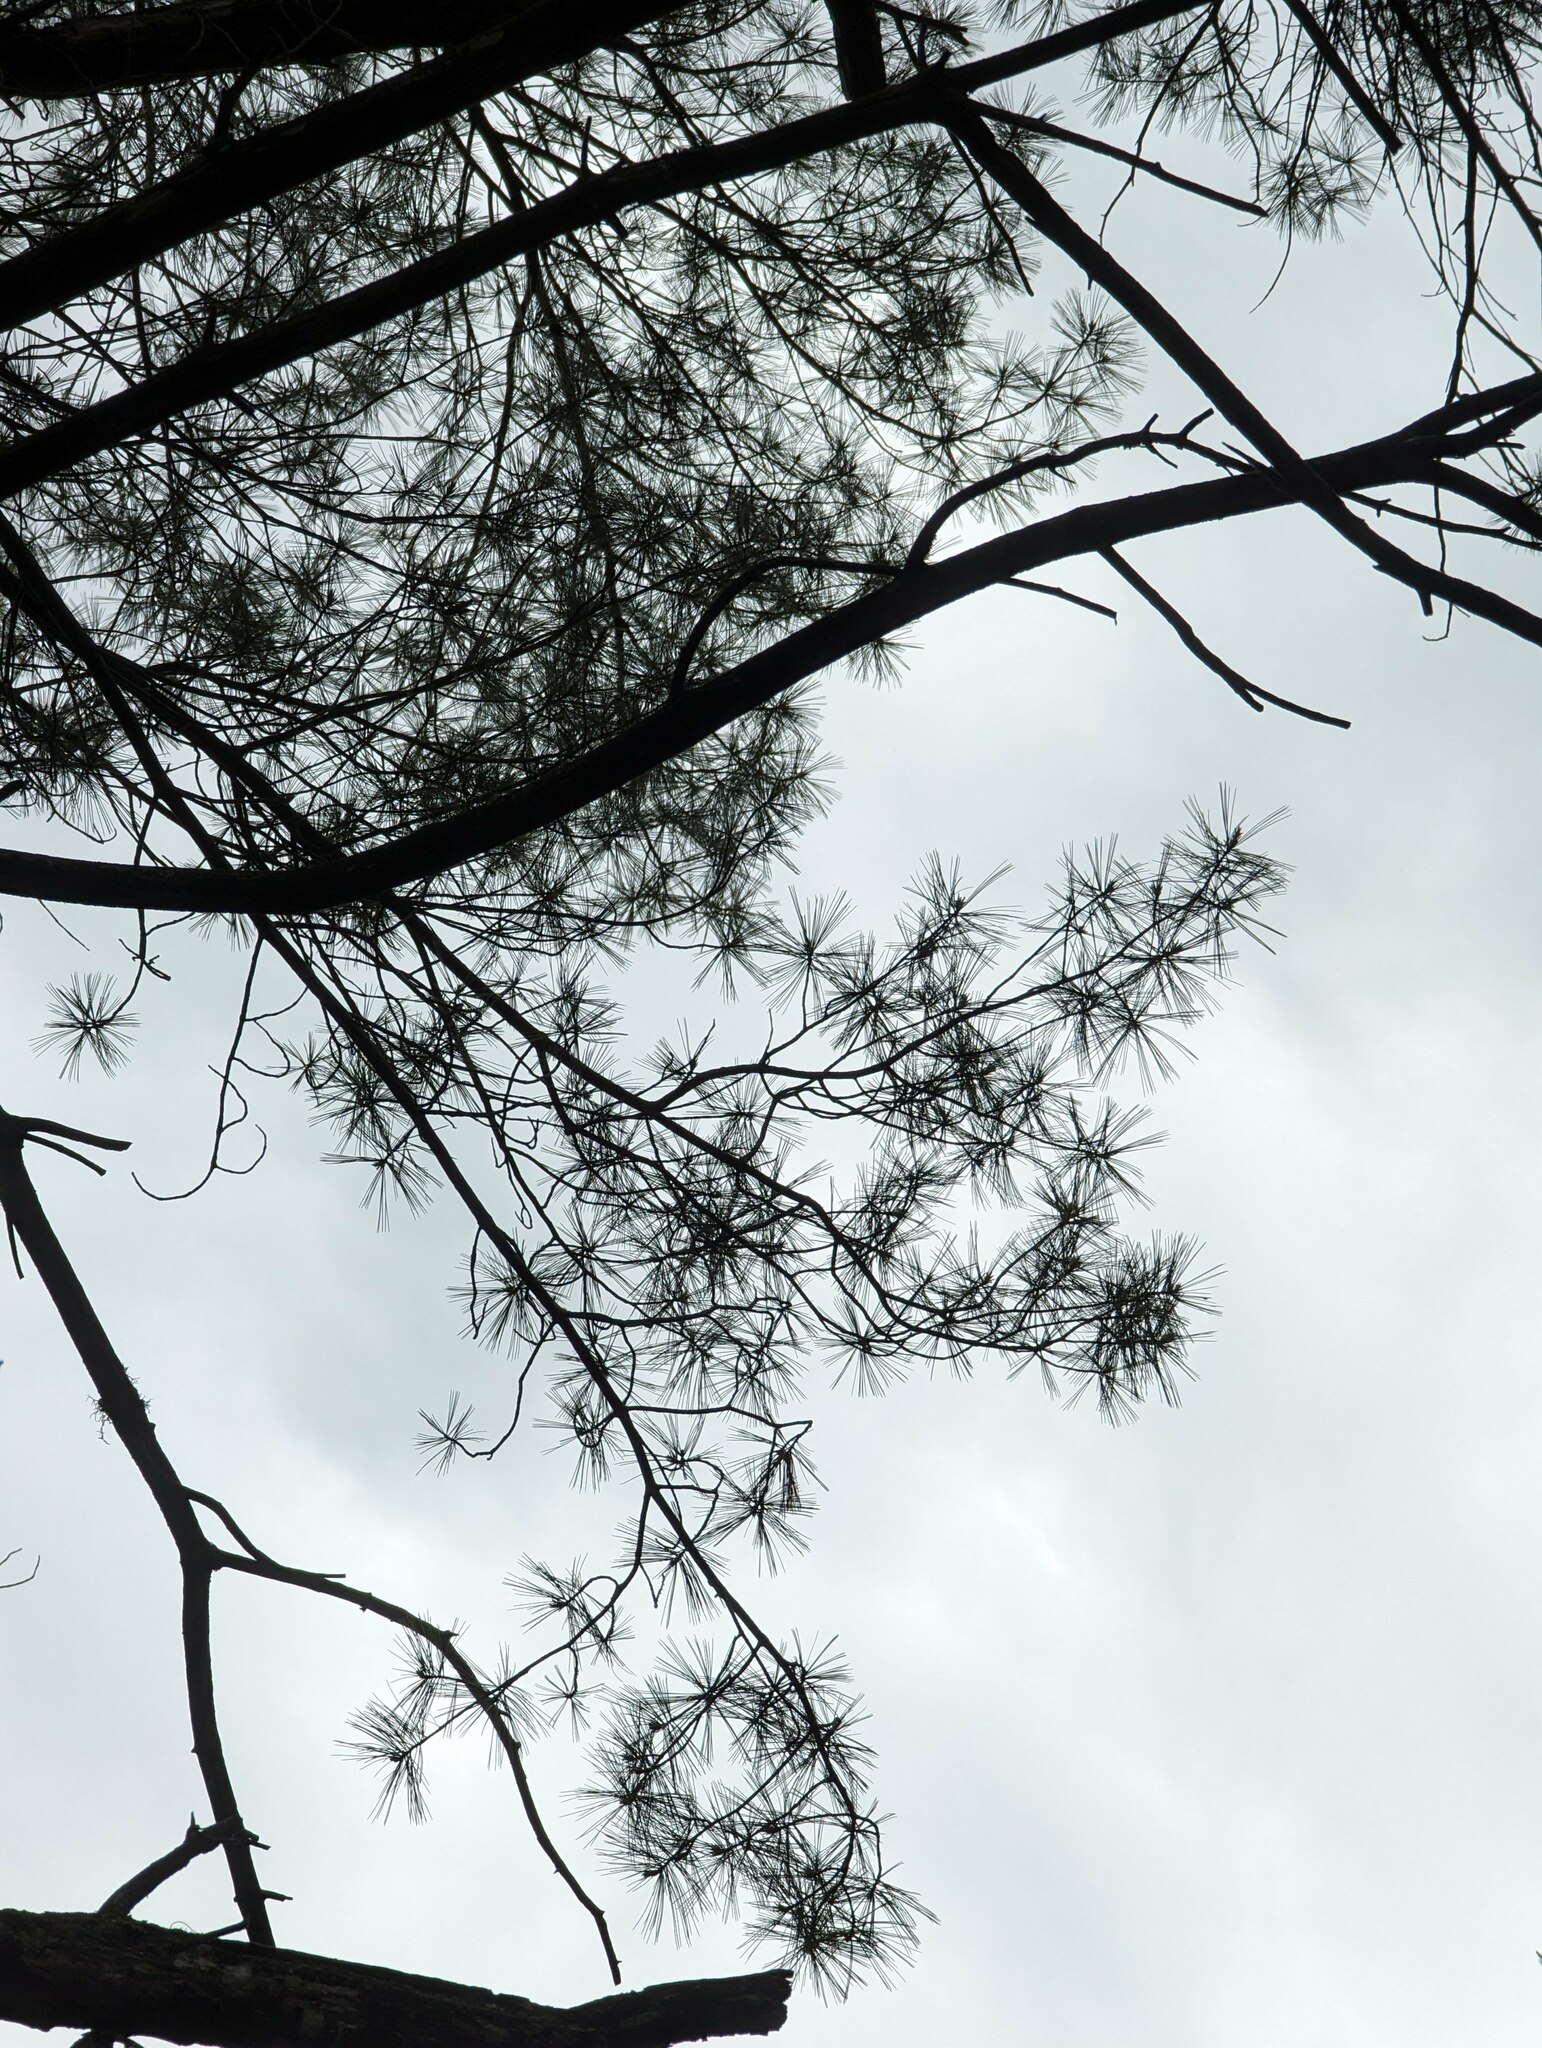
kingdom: Plantae
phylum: Tracheophyta
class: Pinopsida
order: Pinales
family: Pinaceae
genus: Pinus
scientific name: Pinus strobus
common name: Weymouth pine
